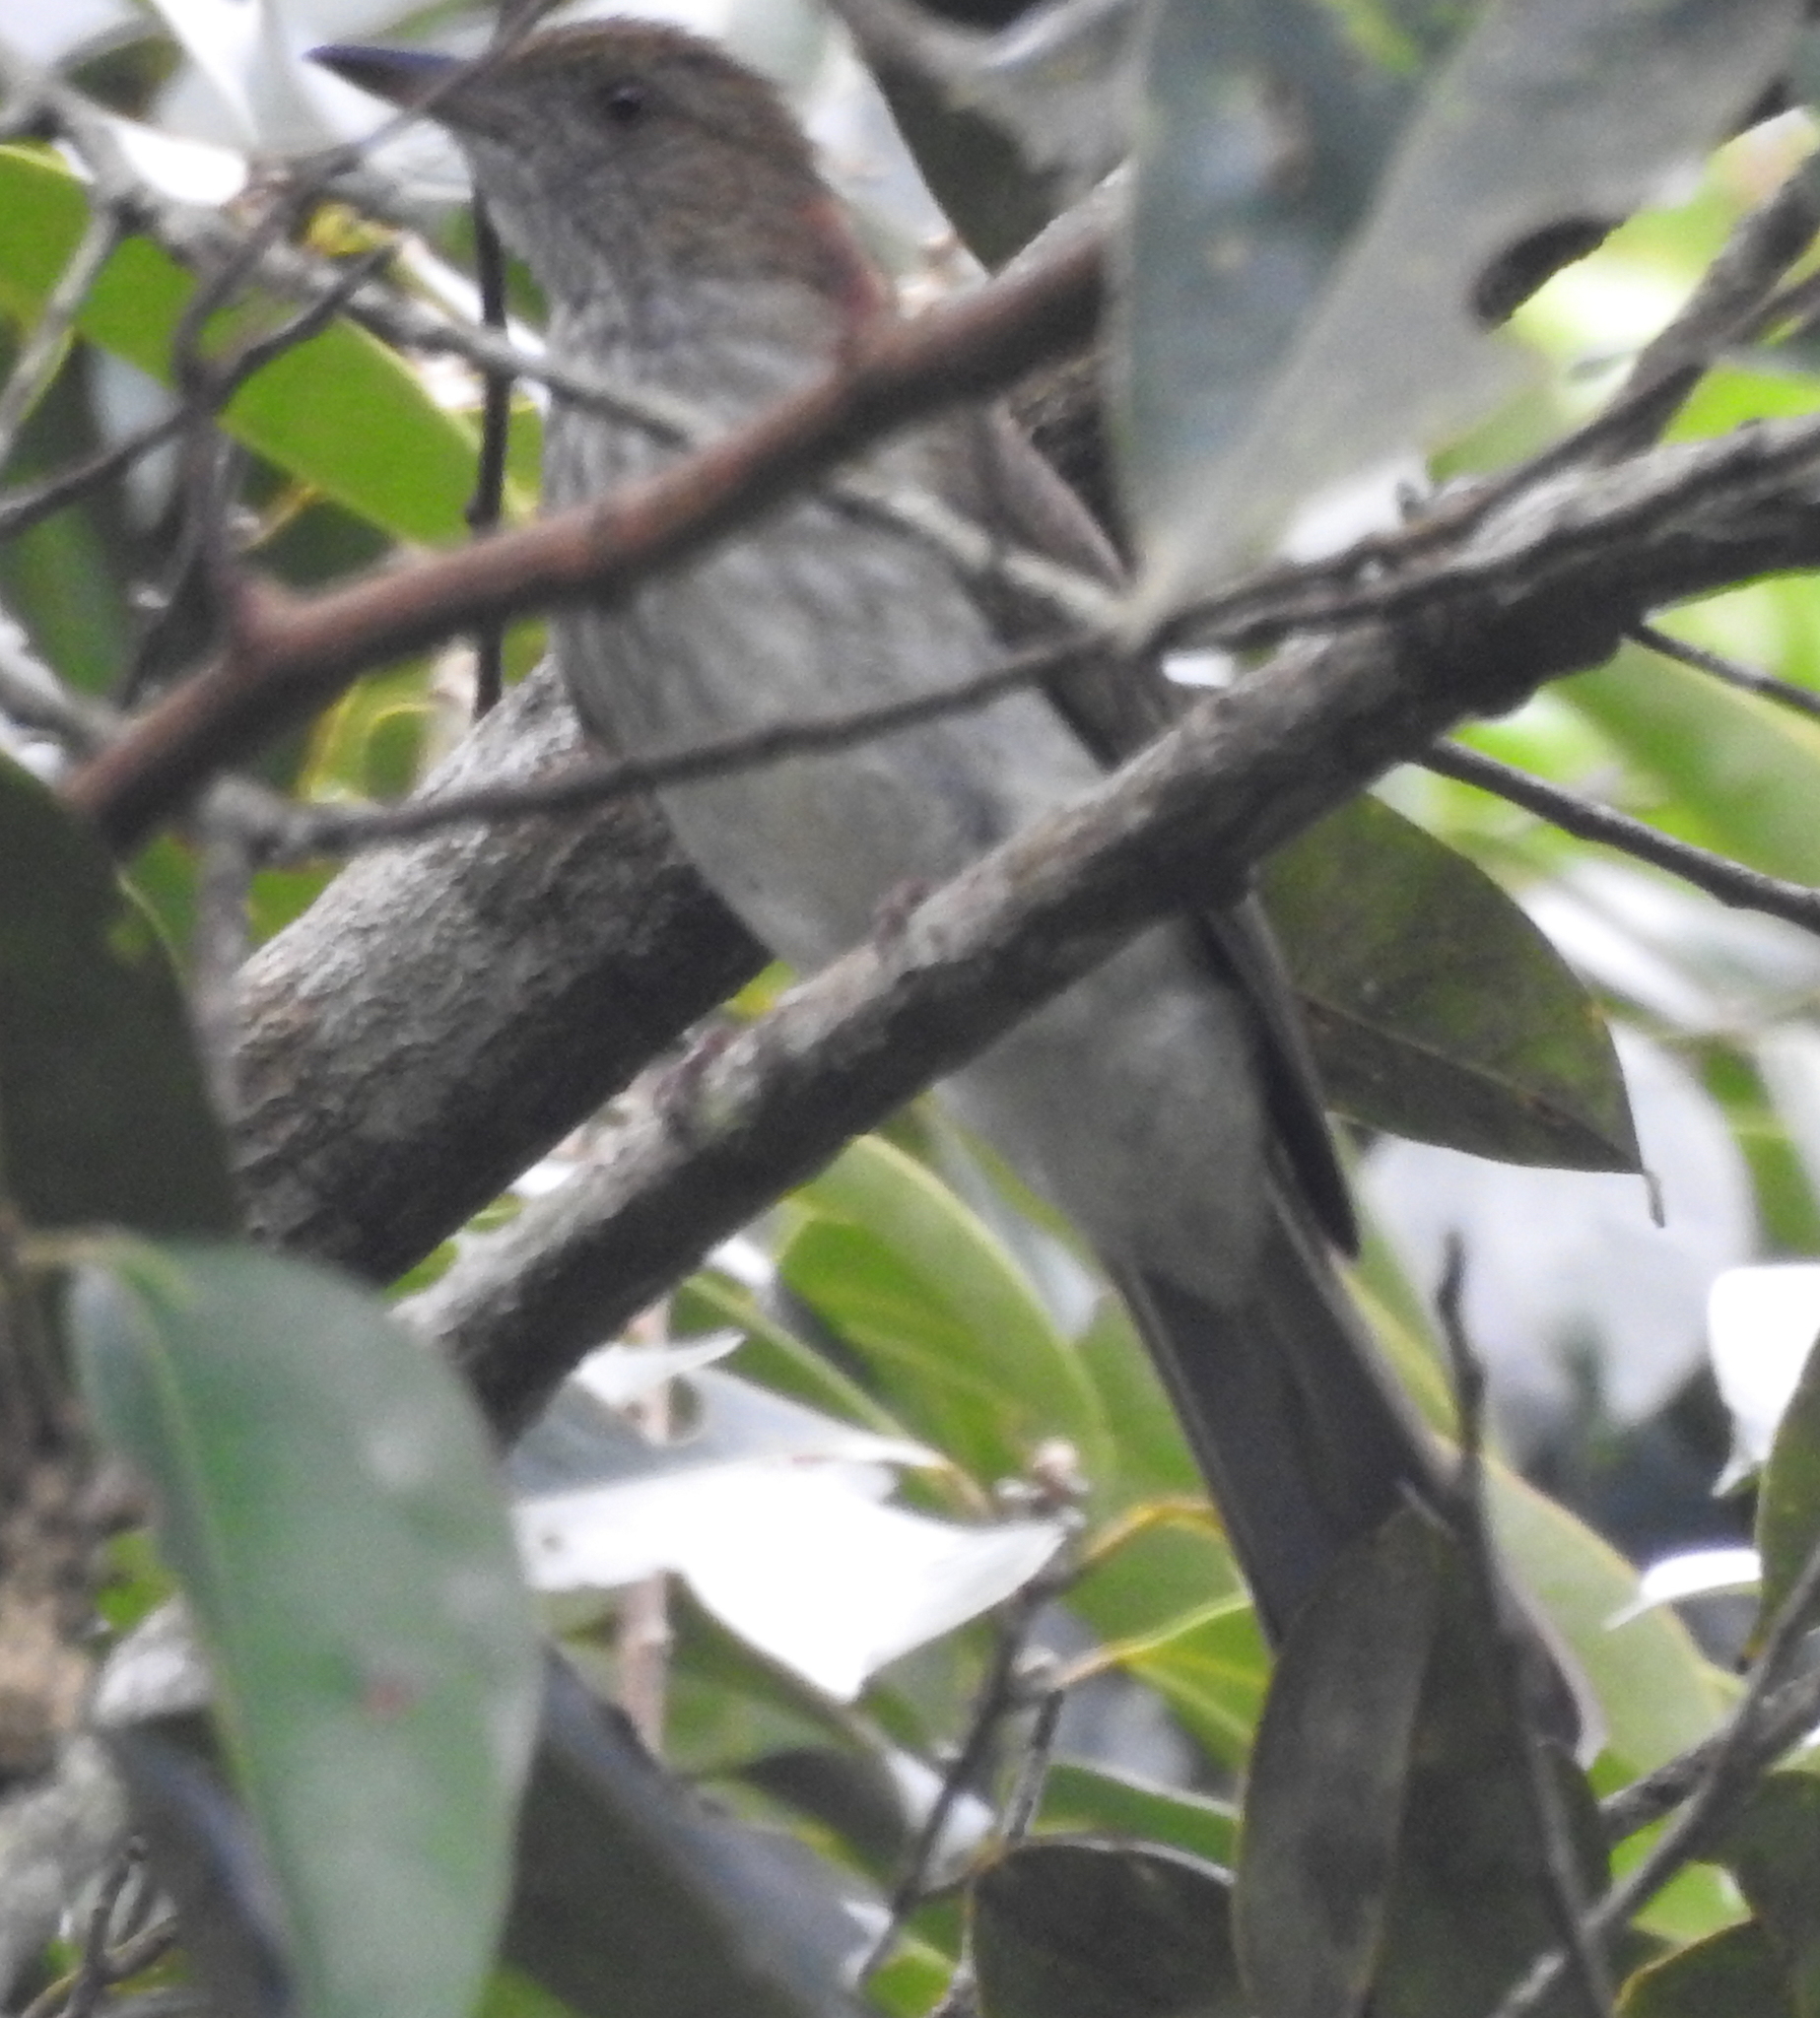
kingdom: Animalia
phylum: Chordata
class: Aves
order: Passeriformes
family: Pycnonotidae
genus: Ixos
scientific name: Ixos malaccensis
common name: Streaked bulbul
